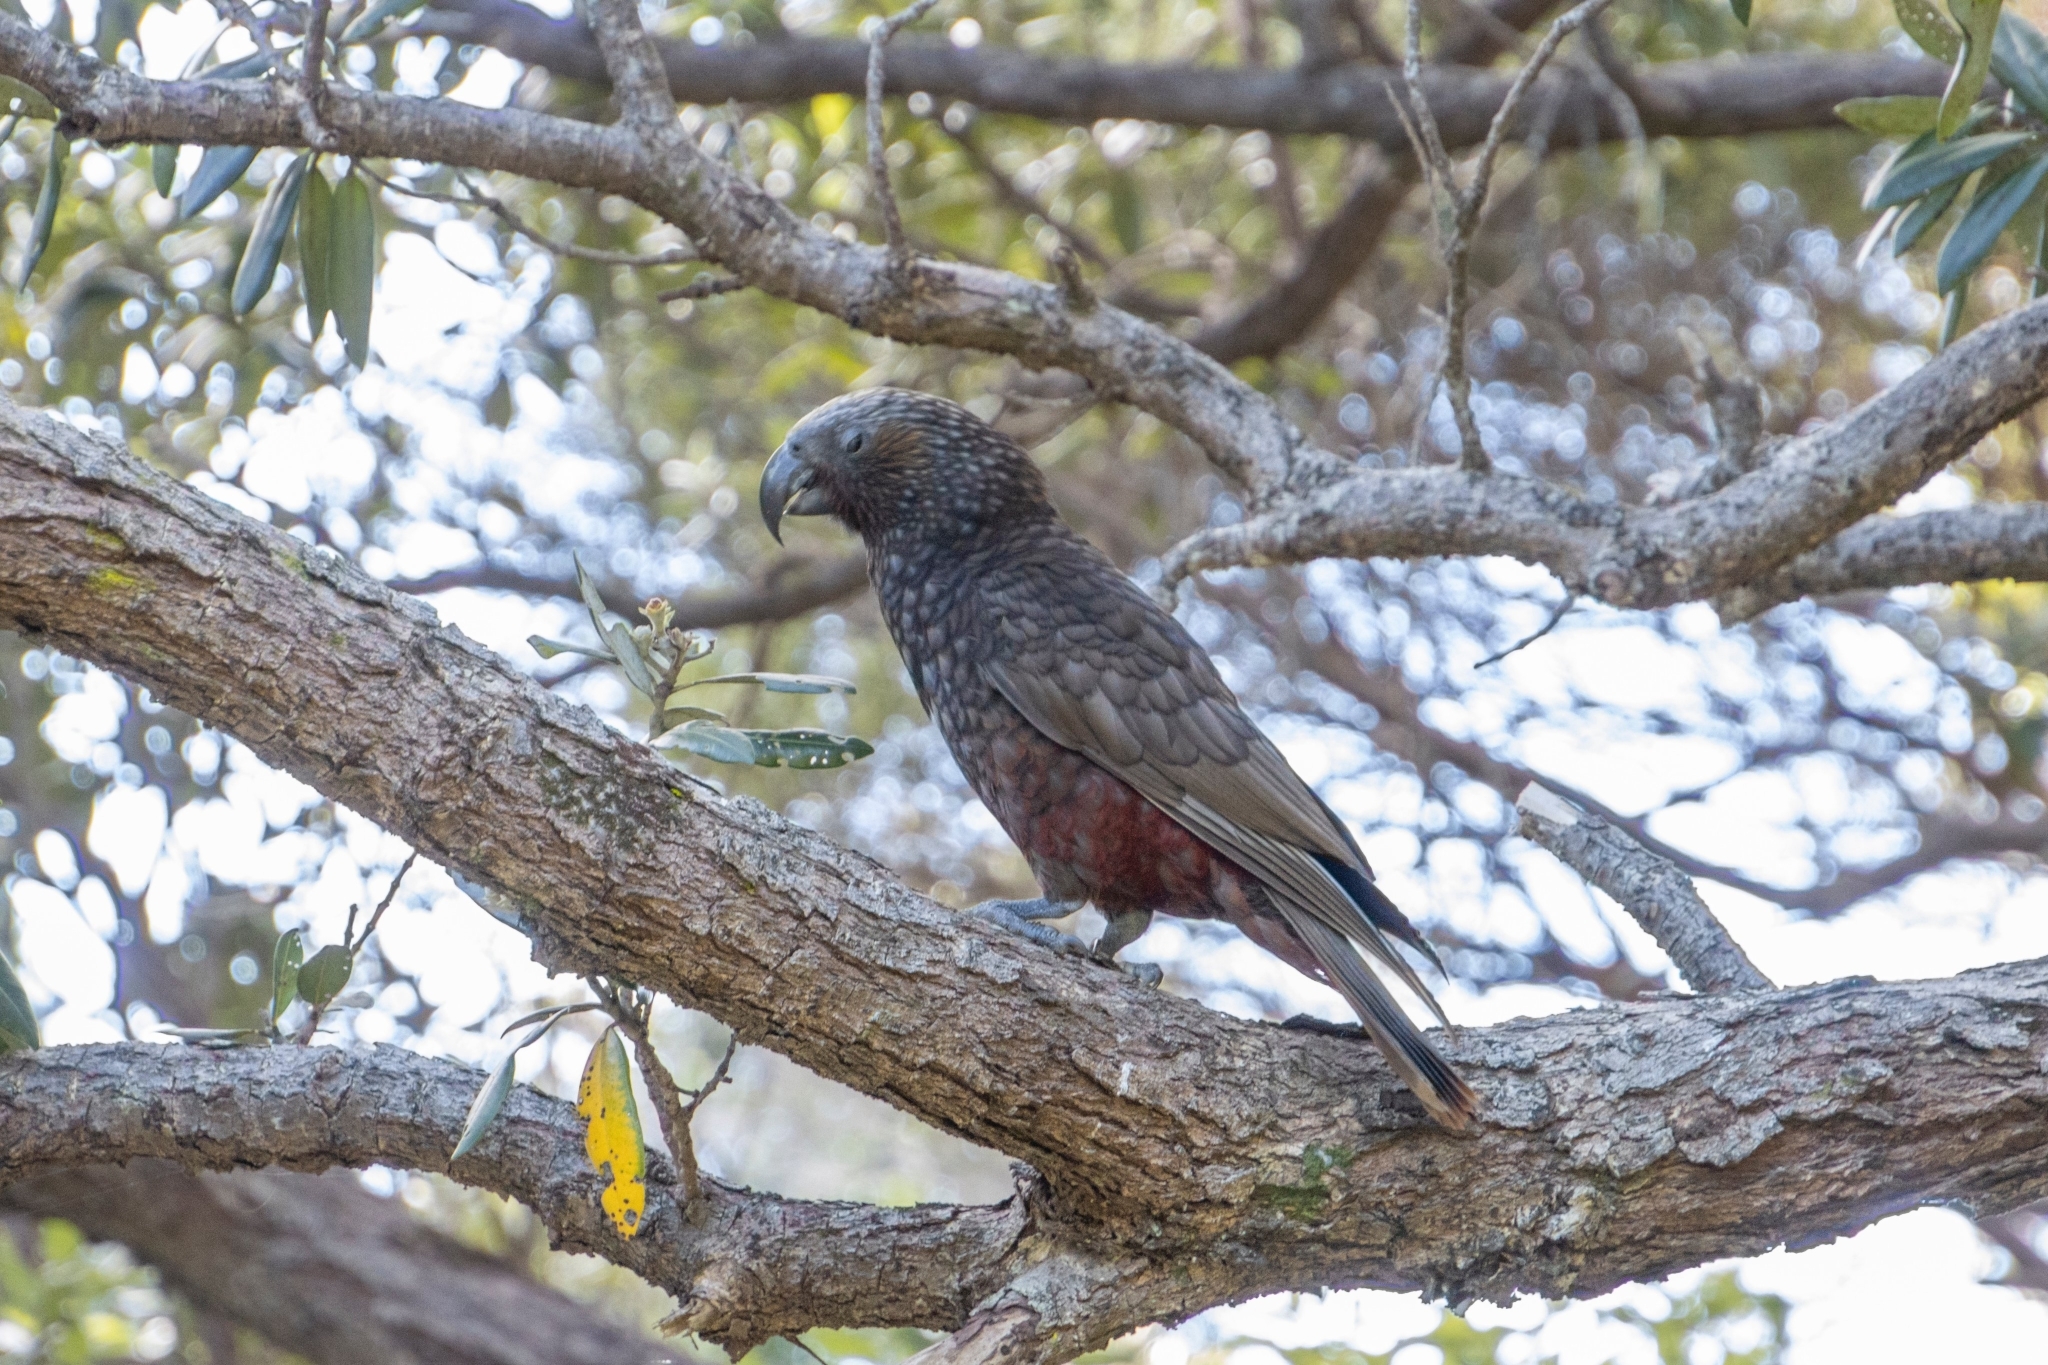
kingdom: Animalia
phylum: Chordata
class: Aves
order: Psittaciformes
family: Psittacidae
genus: Nestor
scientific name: Nestor meridionalis
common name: New zealand kaka
